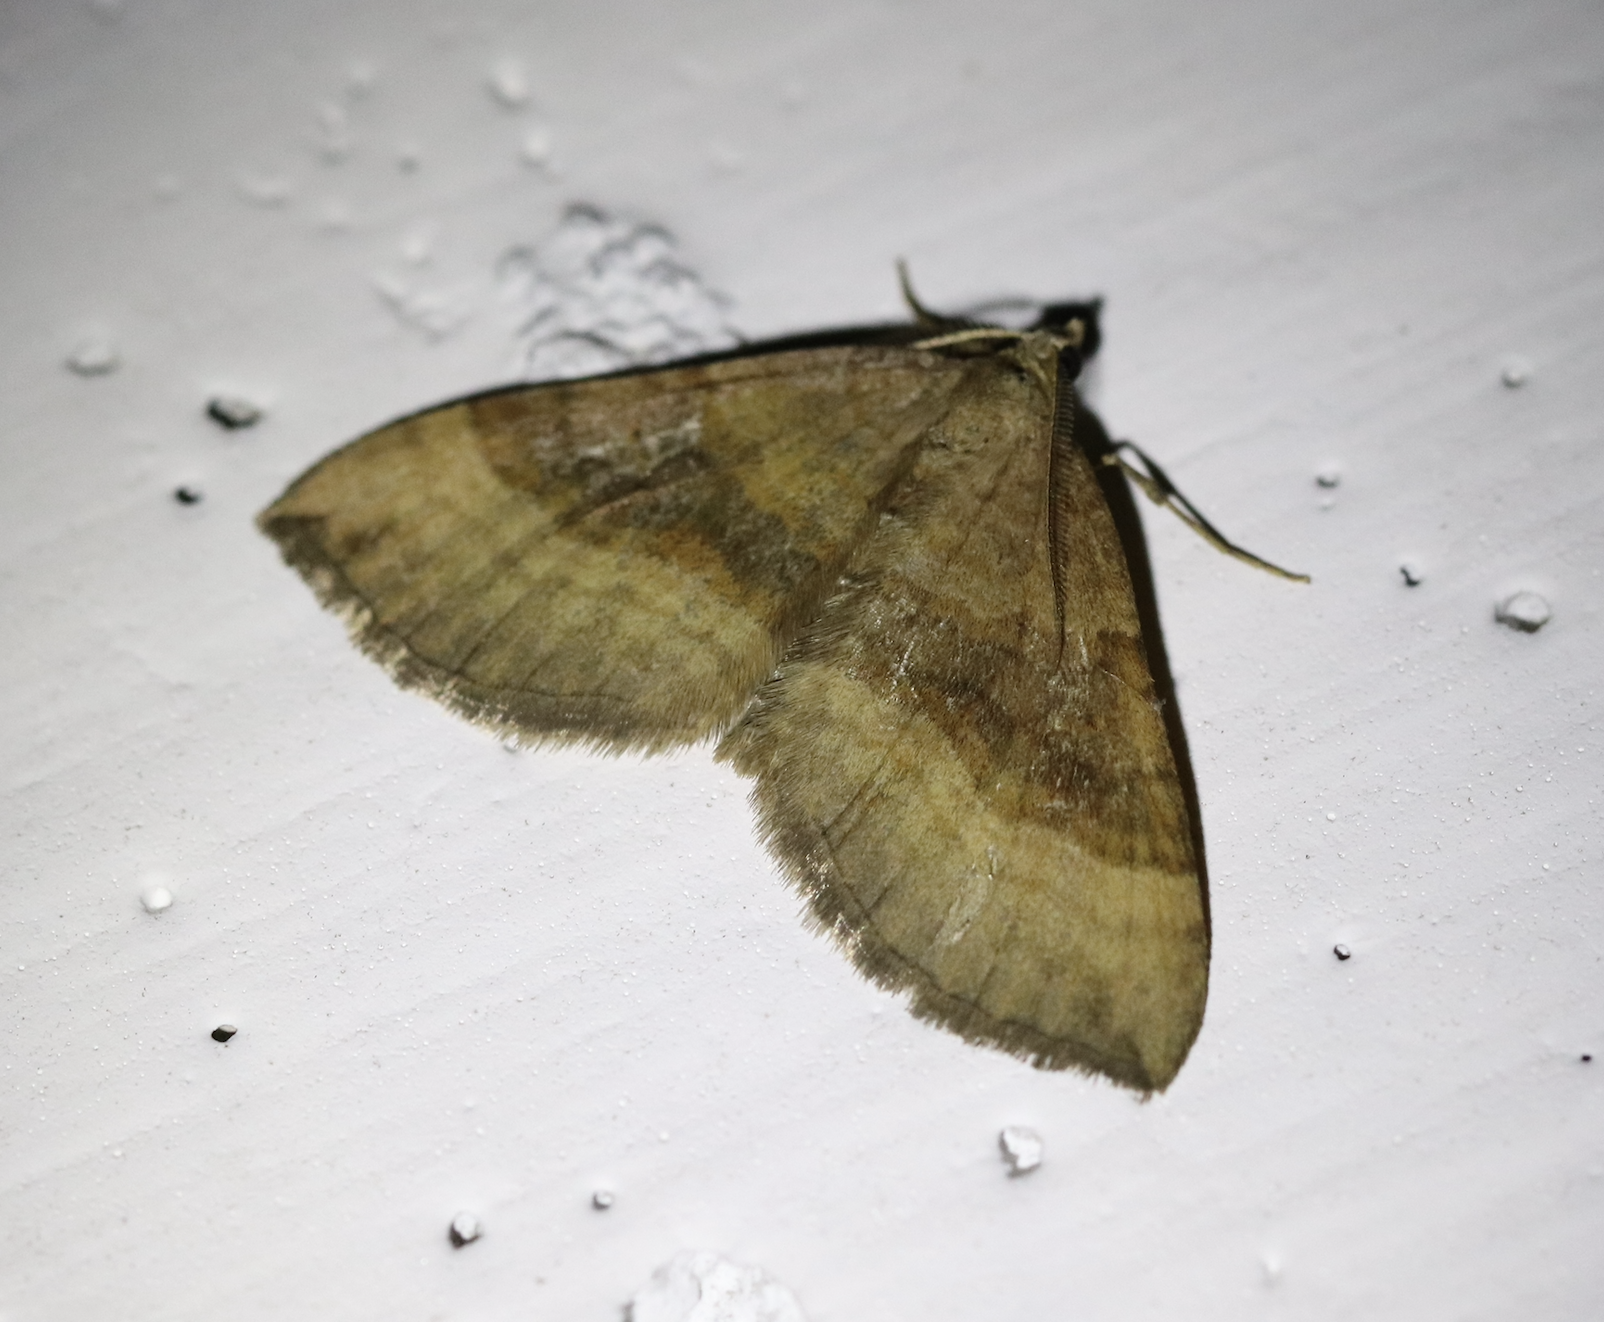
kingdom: Animalia
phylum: Arthropoda
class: Insecta
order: Lepidoptera
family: Geometridae
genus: Scotopteryx
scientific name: Scotopteryx chenopodiata
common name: Shaded broad-bar
